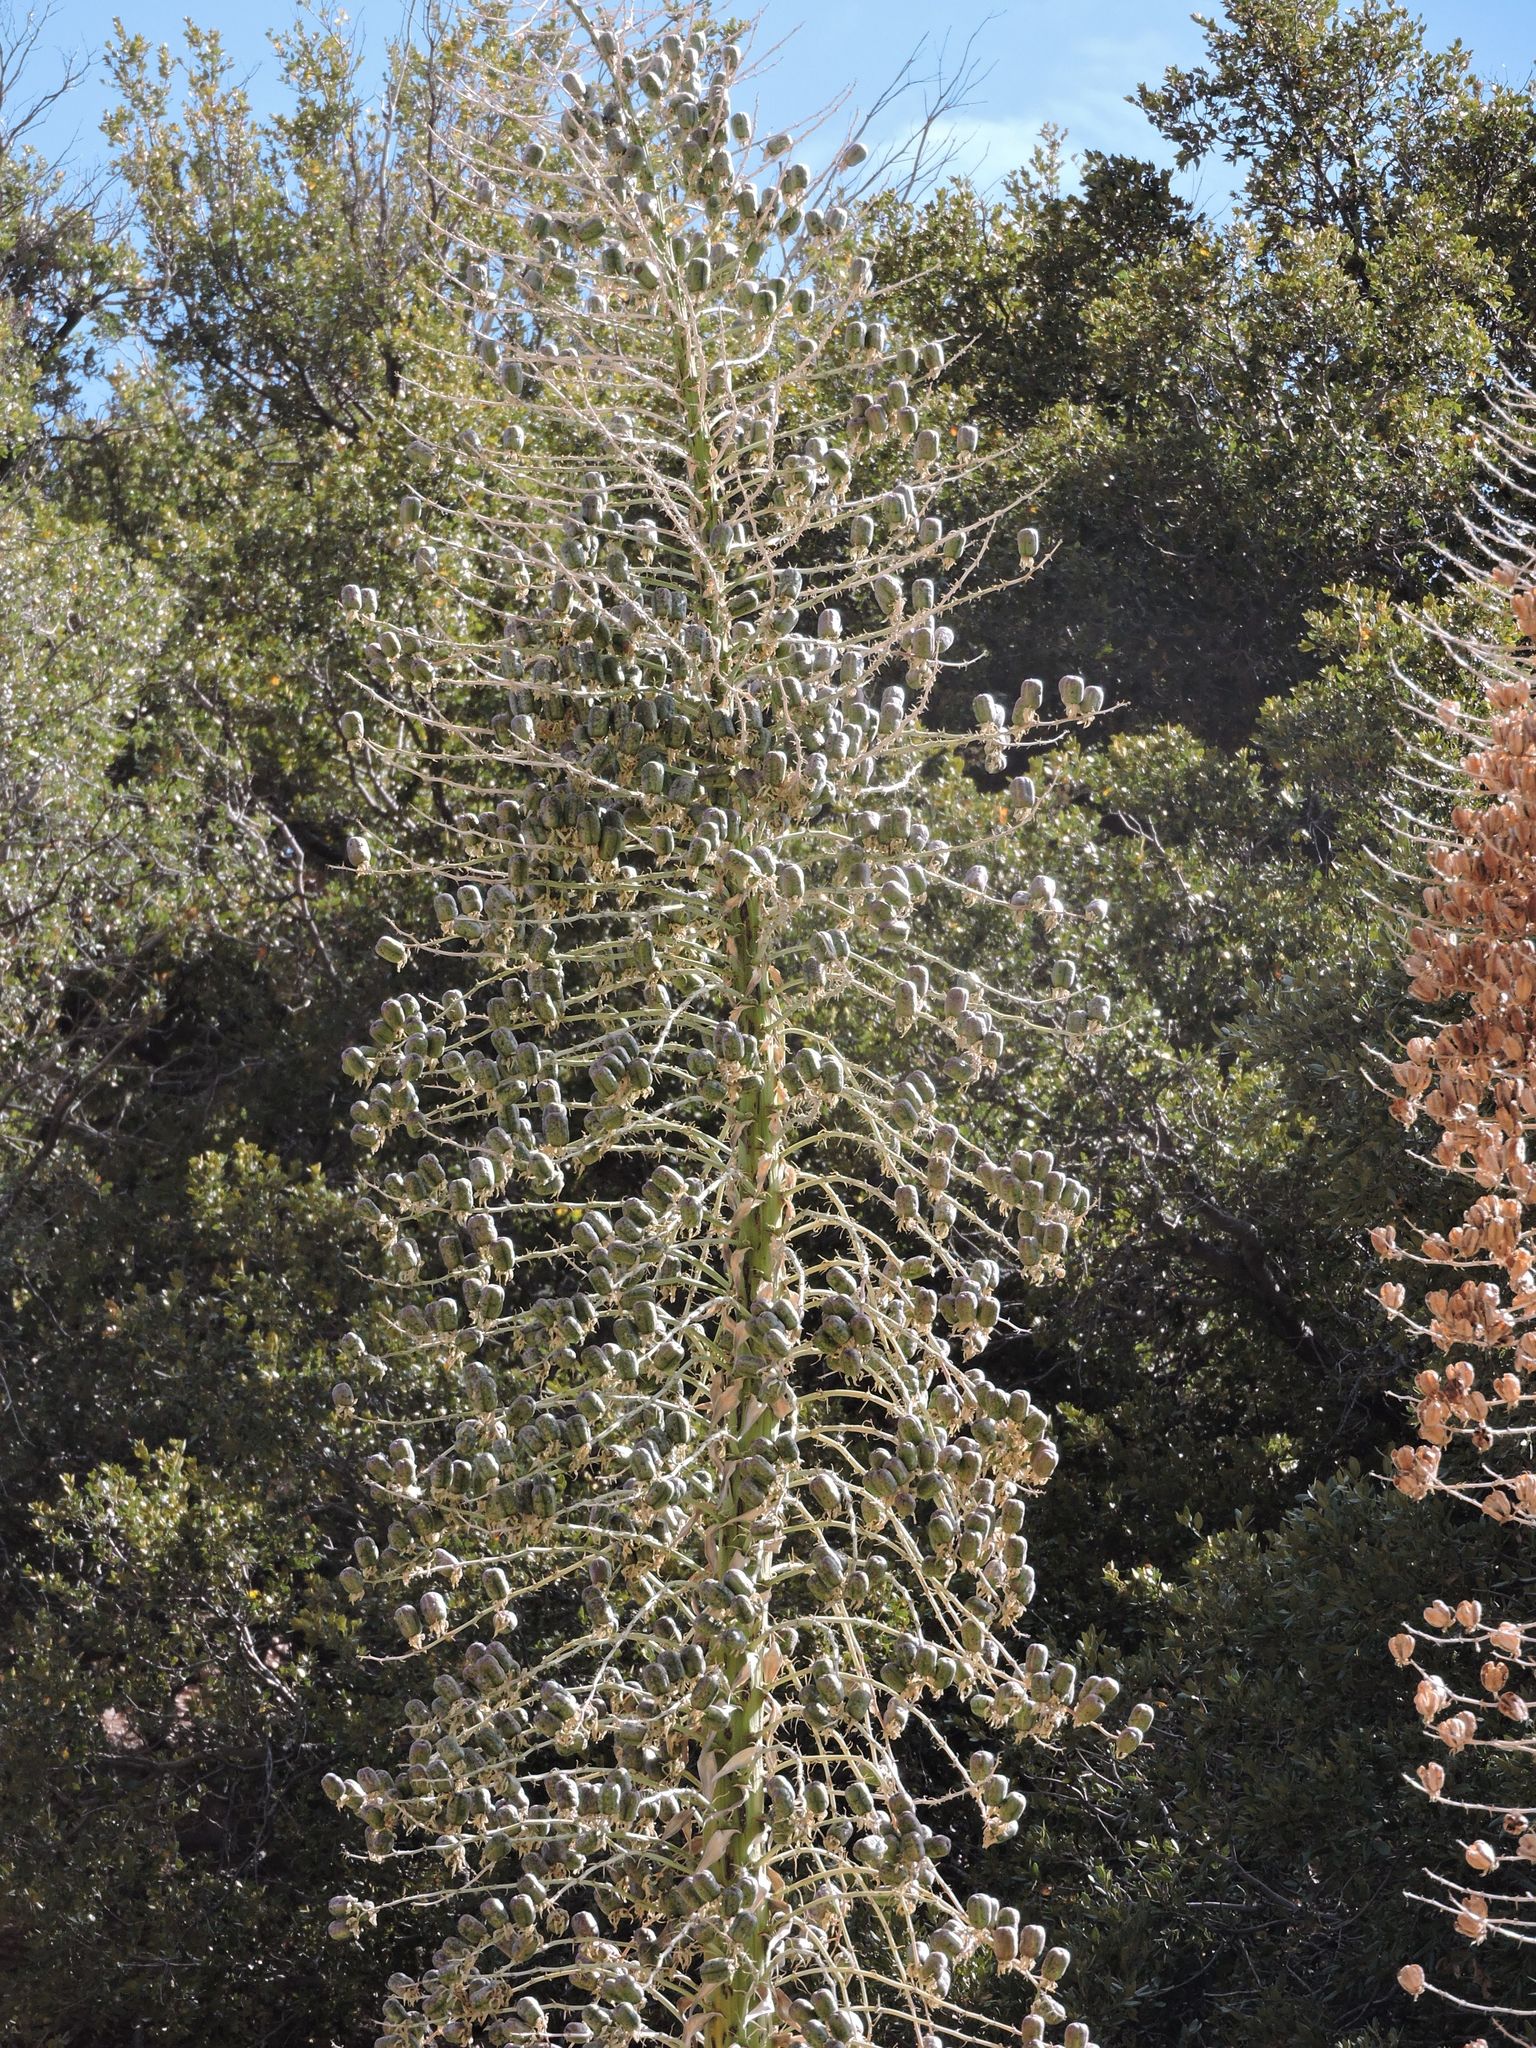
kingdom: Plantae
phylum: Tracheophyta
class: Liliopsida
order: Asparagales
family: Asparagaceae
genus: Hesperoyucca
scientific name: Hesperoyucca whipplei
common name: Our lord's-candle
